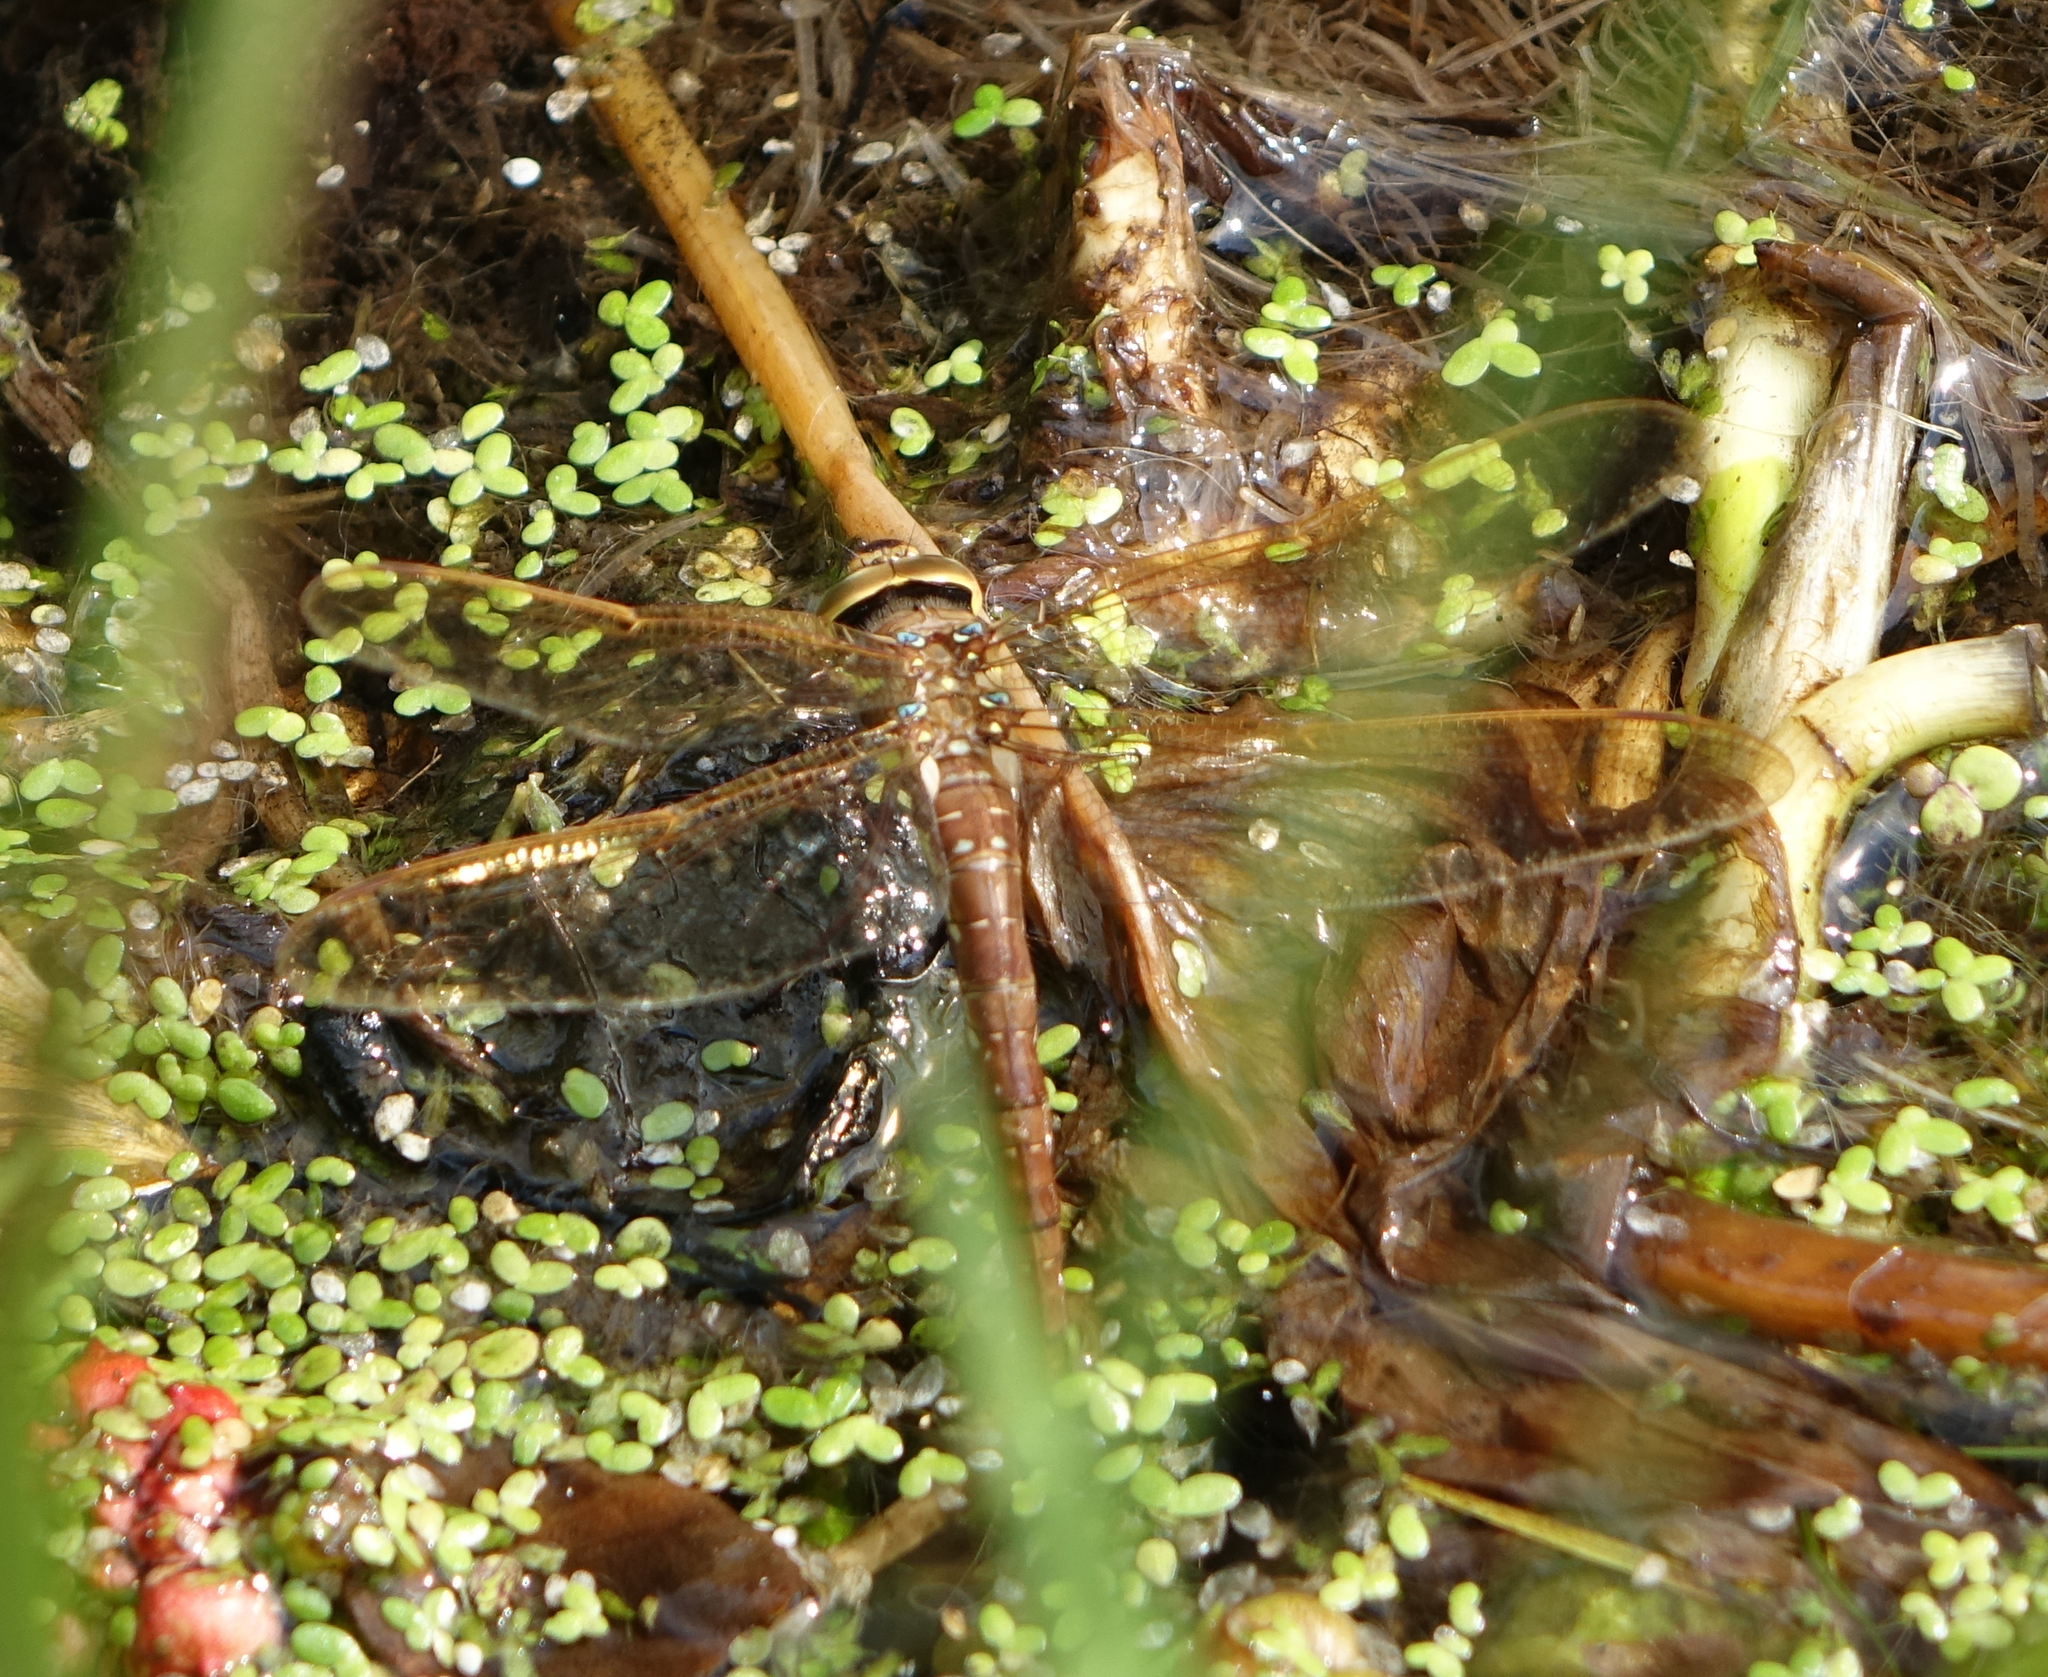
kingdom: Animalia
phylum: Arthropoda
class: Insecta
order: Odonata
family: Aeshnidae
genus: Aeshna
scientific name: Aeshna grandis
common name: Brown hawker
